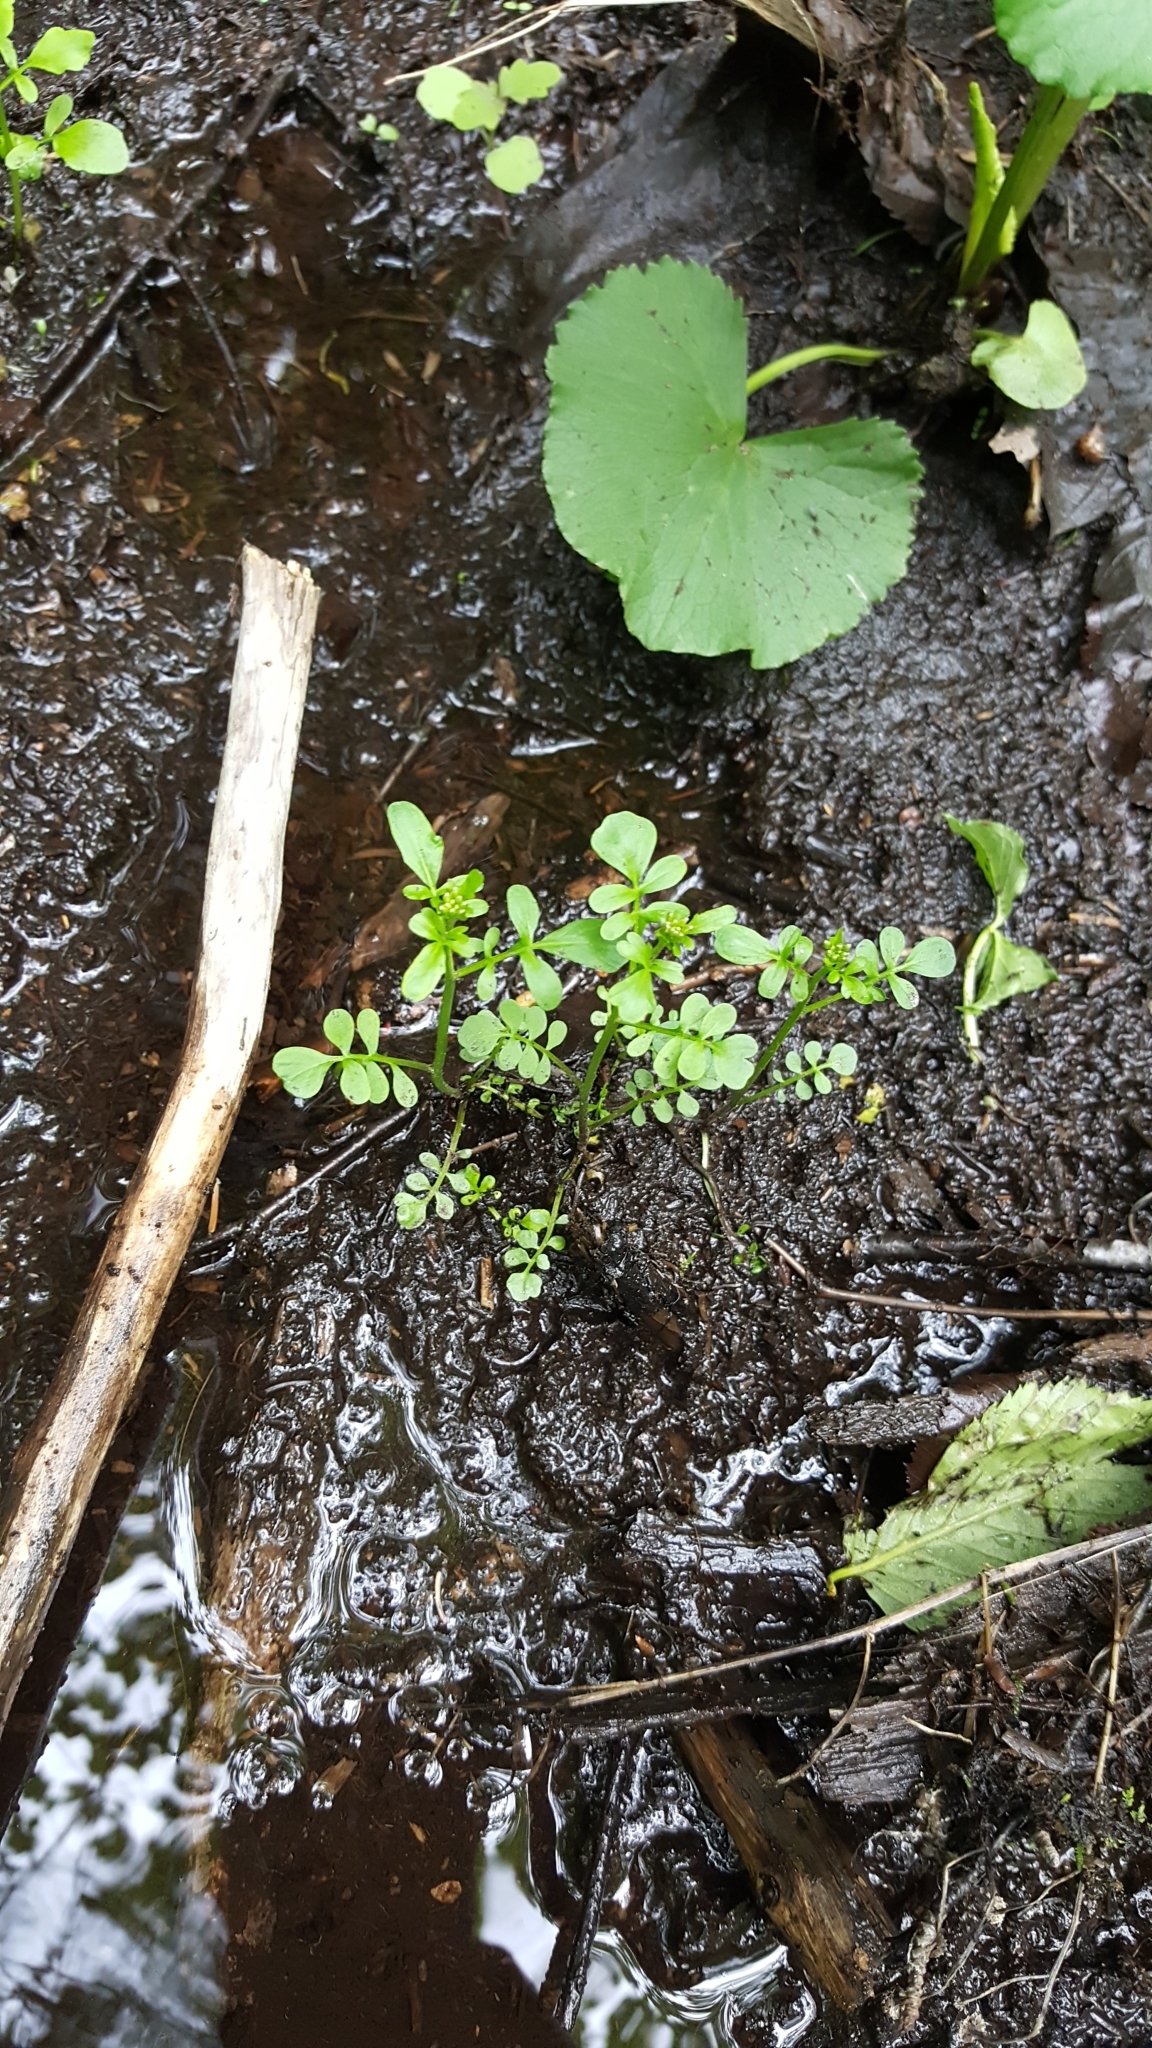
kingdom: Plantae
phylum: Tracheophyta
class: Magnoliopsida
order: Brassicales
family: Brassicaceae
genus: Cardamine
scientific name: Cardamine pensylvanica
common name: Pennsylvania bittercress
